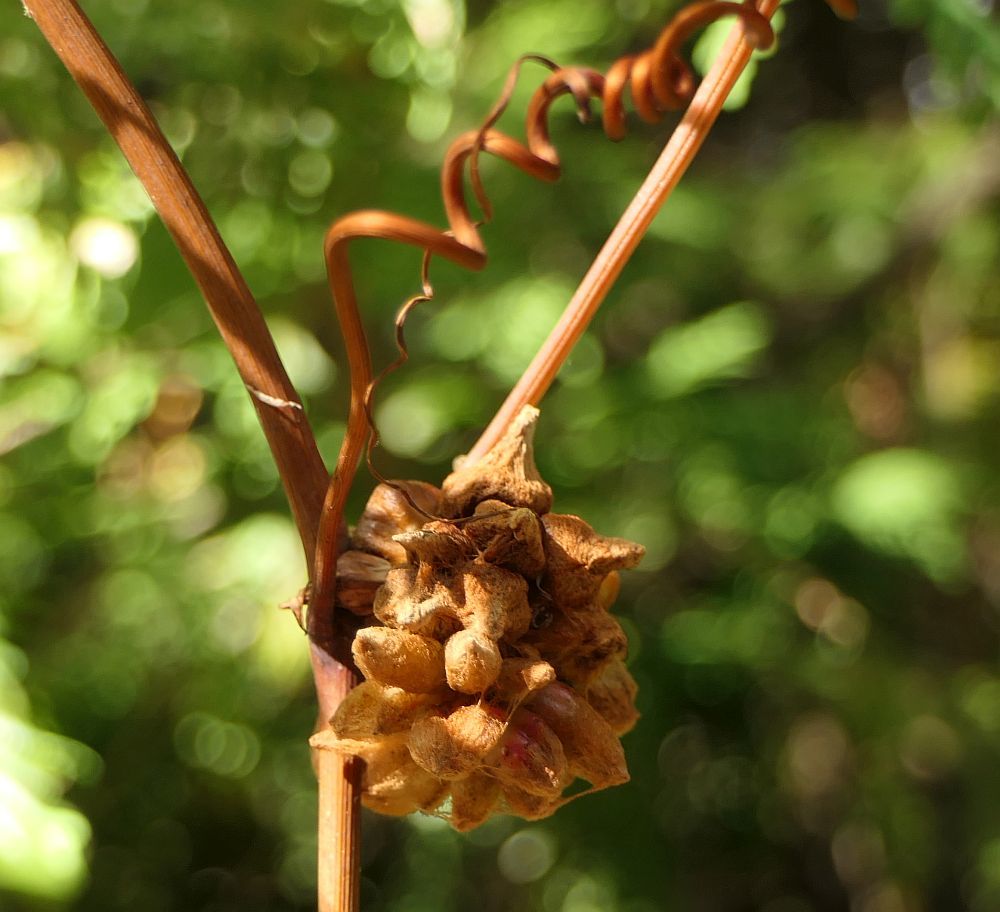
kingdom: Animalia
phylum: Arthropoda
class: Insecta
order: Diptera
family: Cecidomyiidae
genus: Ampelomyia
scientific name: Ampelomyia vitiscoryloides
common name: Grape filbert gall
